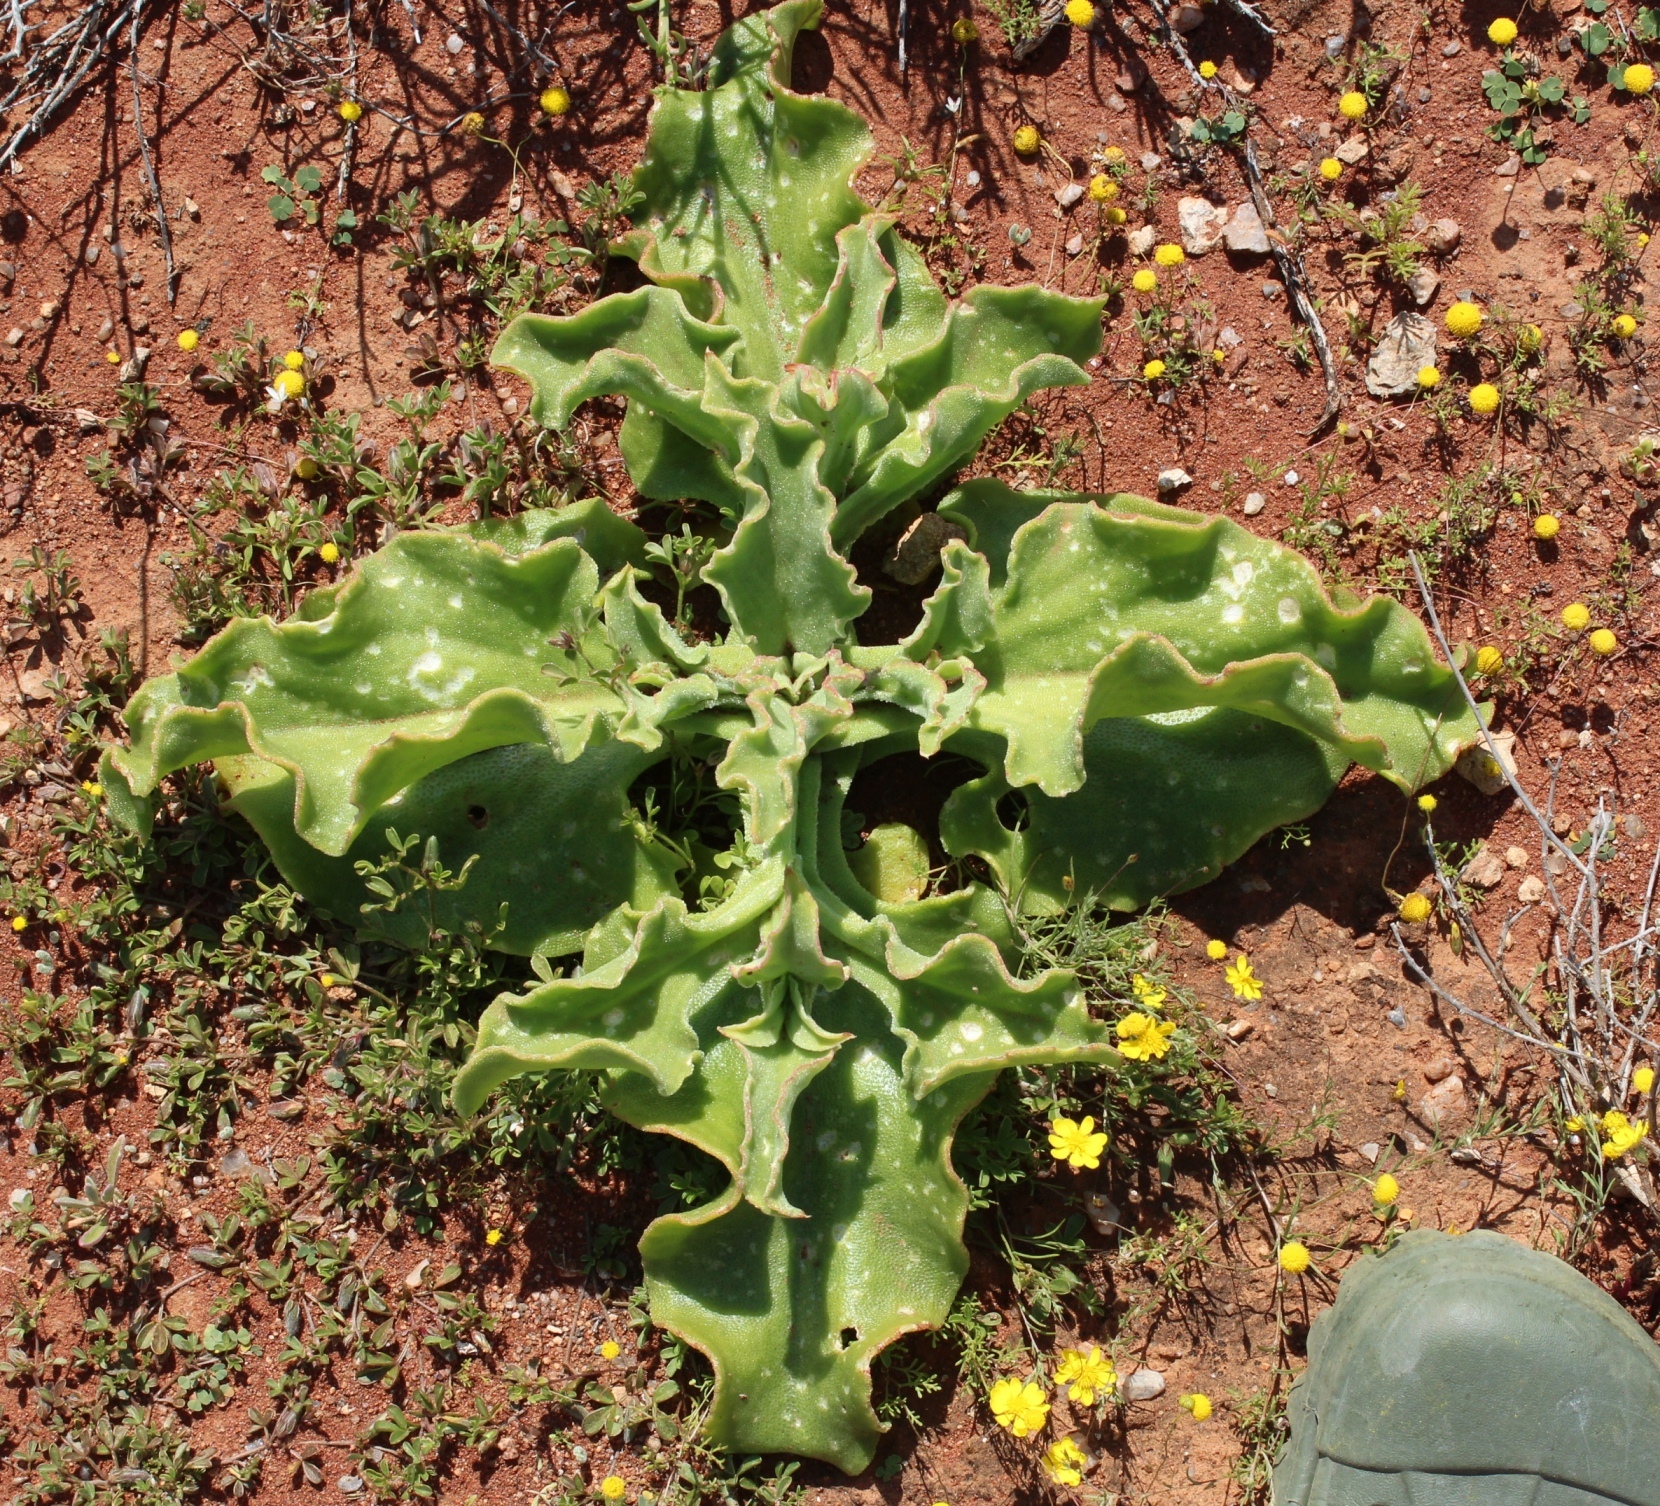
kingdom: Plantae
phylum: Tracheophyta
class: Magnoliopsida
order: Caryophyllales
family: Aizoaceae
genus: Mesembryanthemum
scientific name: Mesembryanthemum guerichianum
